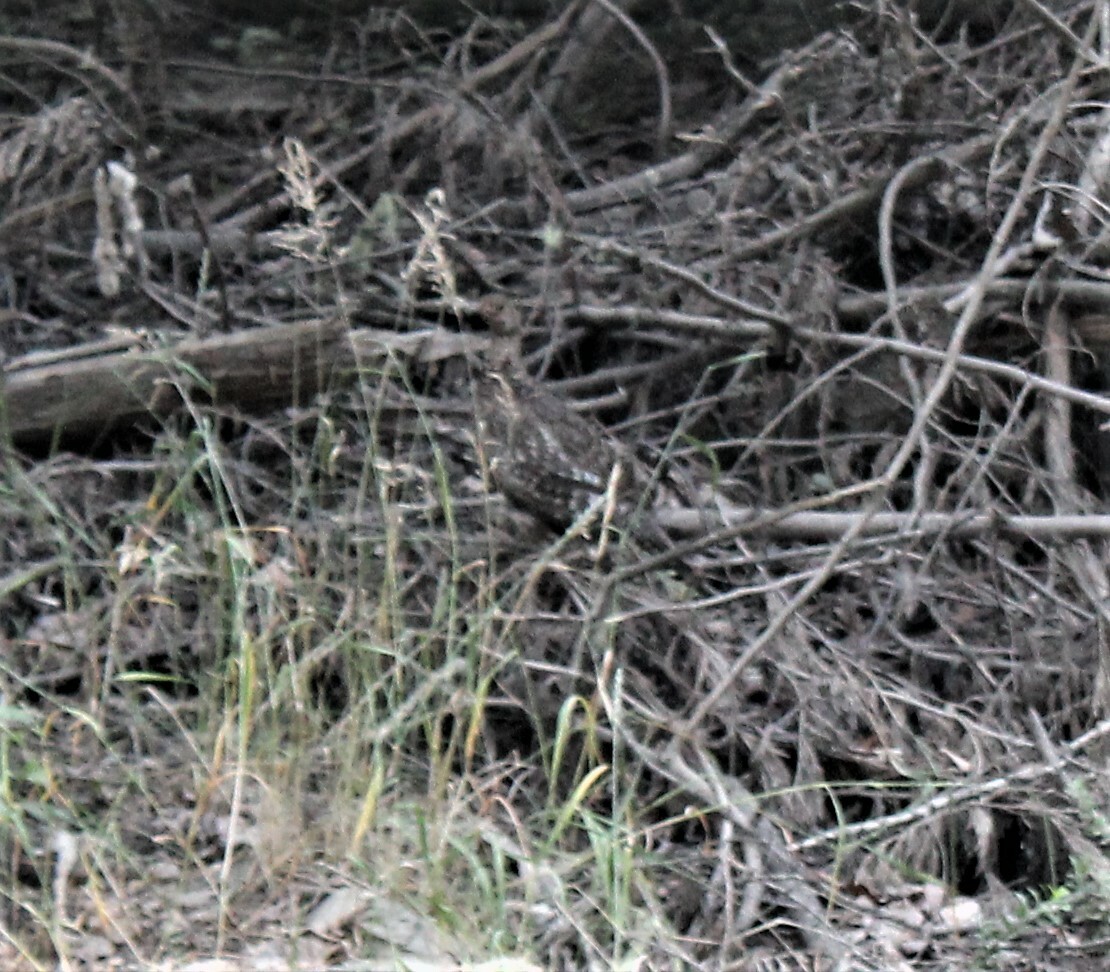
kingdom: Animalia
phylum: Chordata
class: Aves
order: Galliformes
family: Phasianidae
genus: Dendragapus
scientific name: Dendragapus fuliginosus
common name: Sooty grouse
